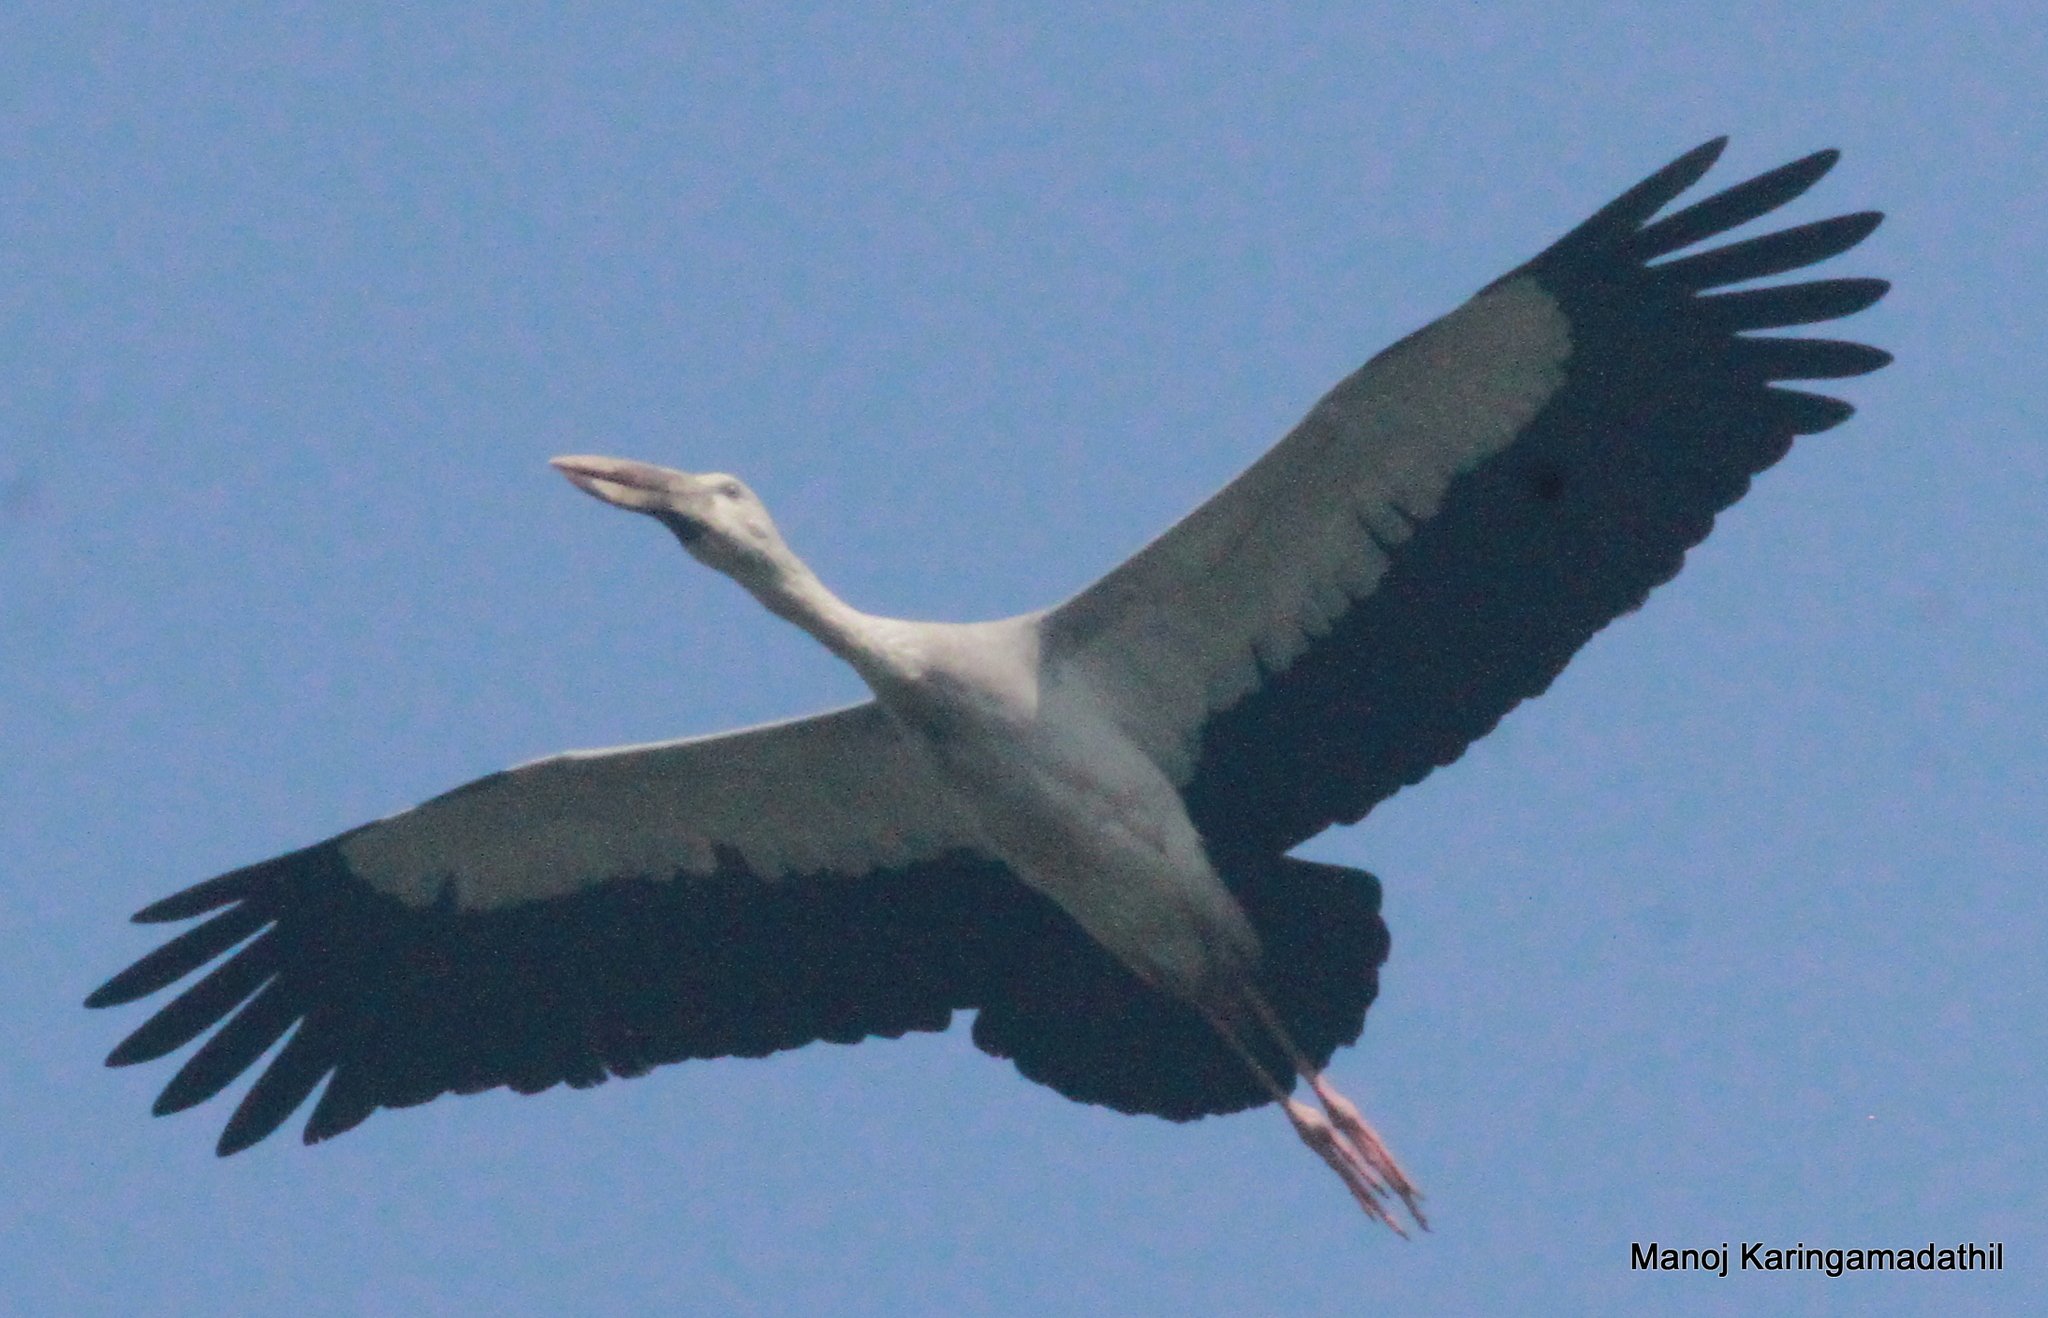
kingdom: Animalia
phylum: Chordata
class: Aves
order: Ciconiiformes
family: Ciconiidae
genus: Anastomus
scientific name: Anastomus oscitans
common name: Asian openbill
